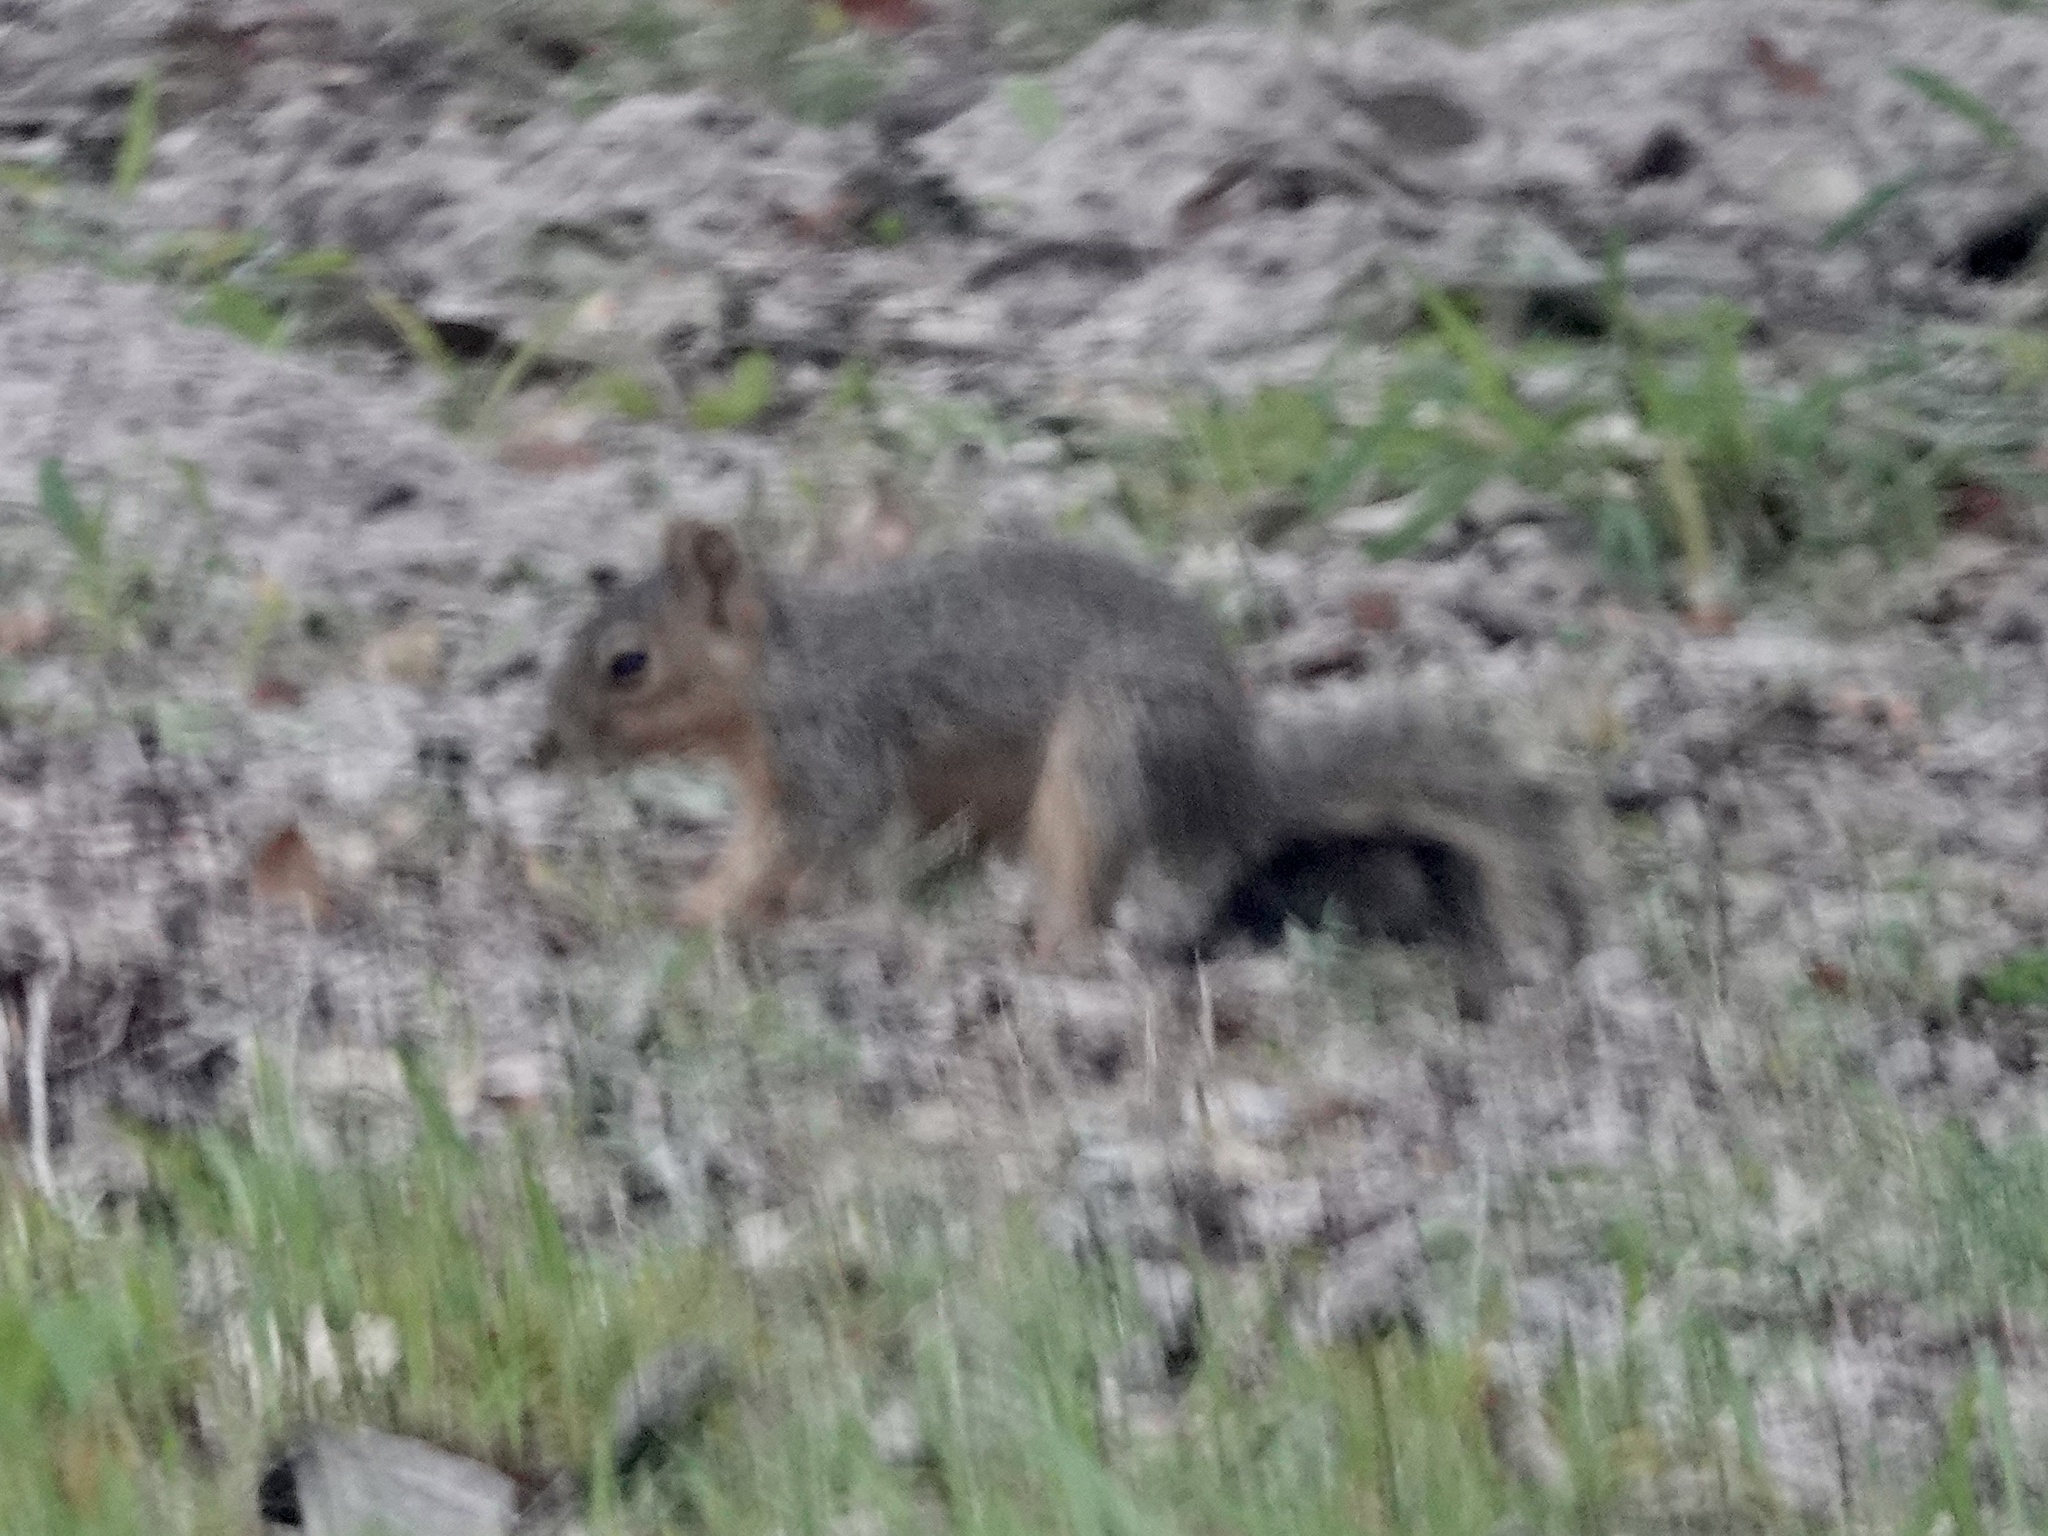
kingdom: Animalia
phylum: Chordata
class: Mammalia
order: Rodentia
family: Sciuridae
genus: Sciurus
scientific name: Sciurus niger
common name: Fox squirrel
